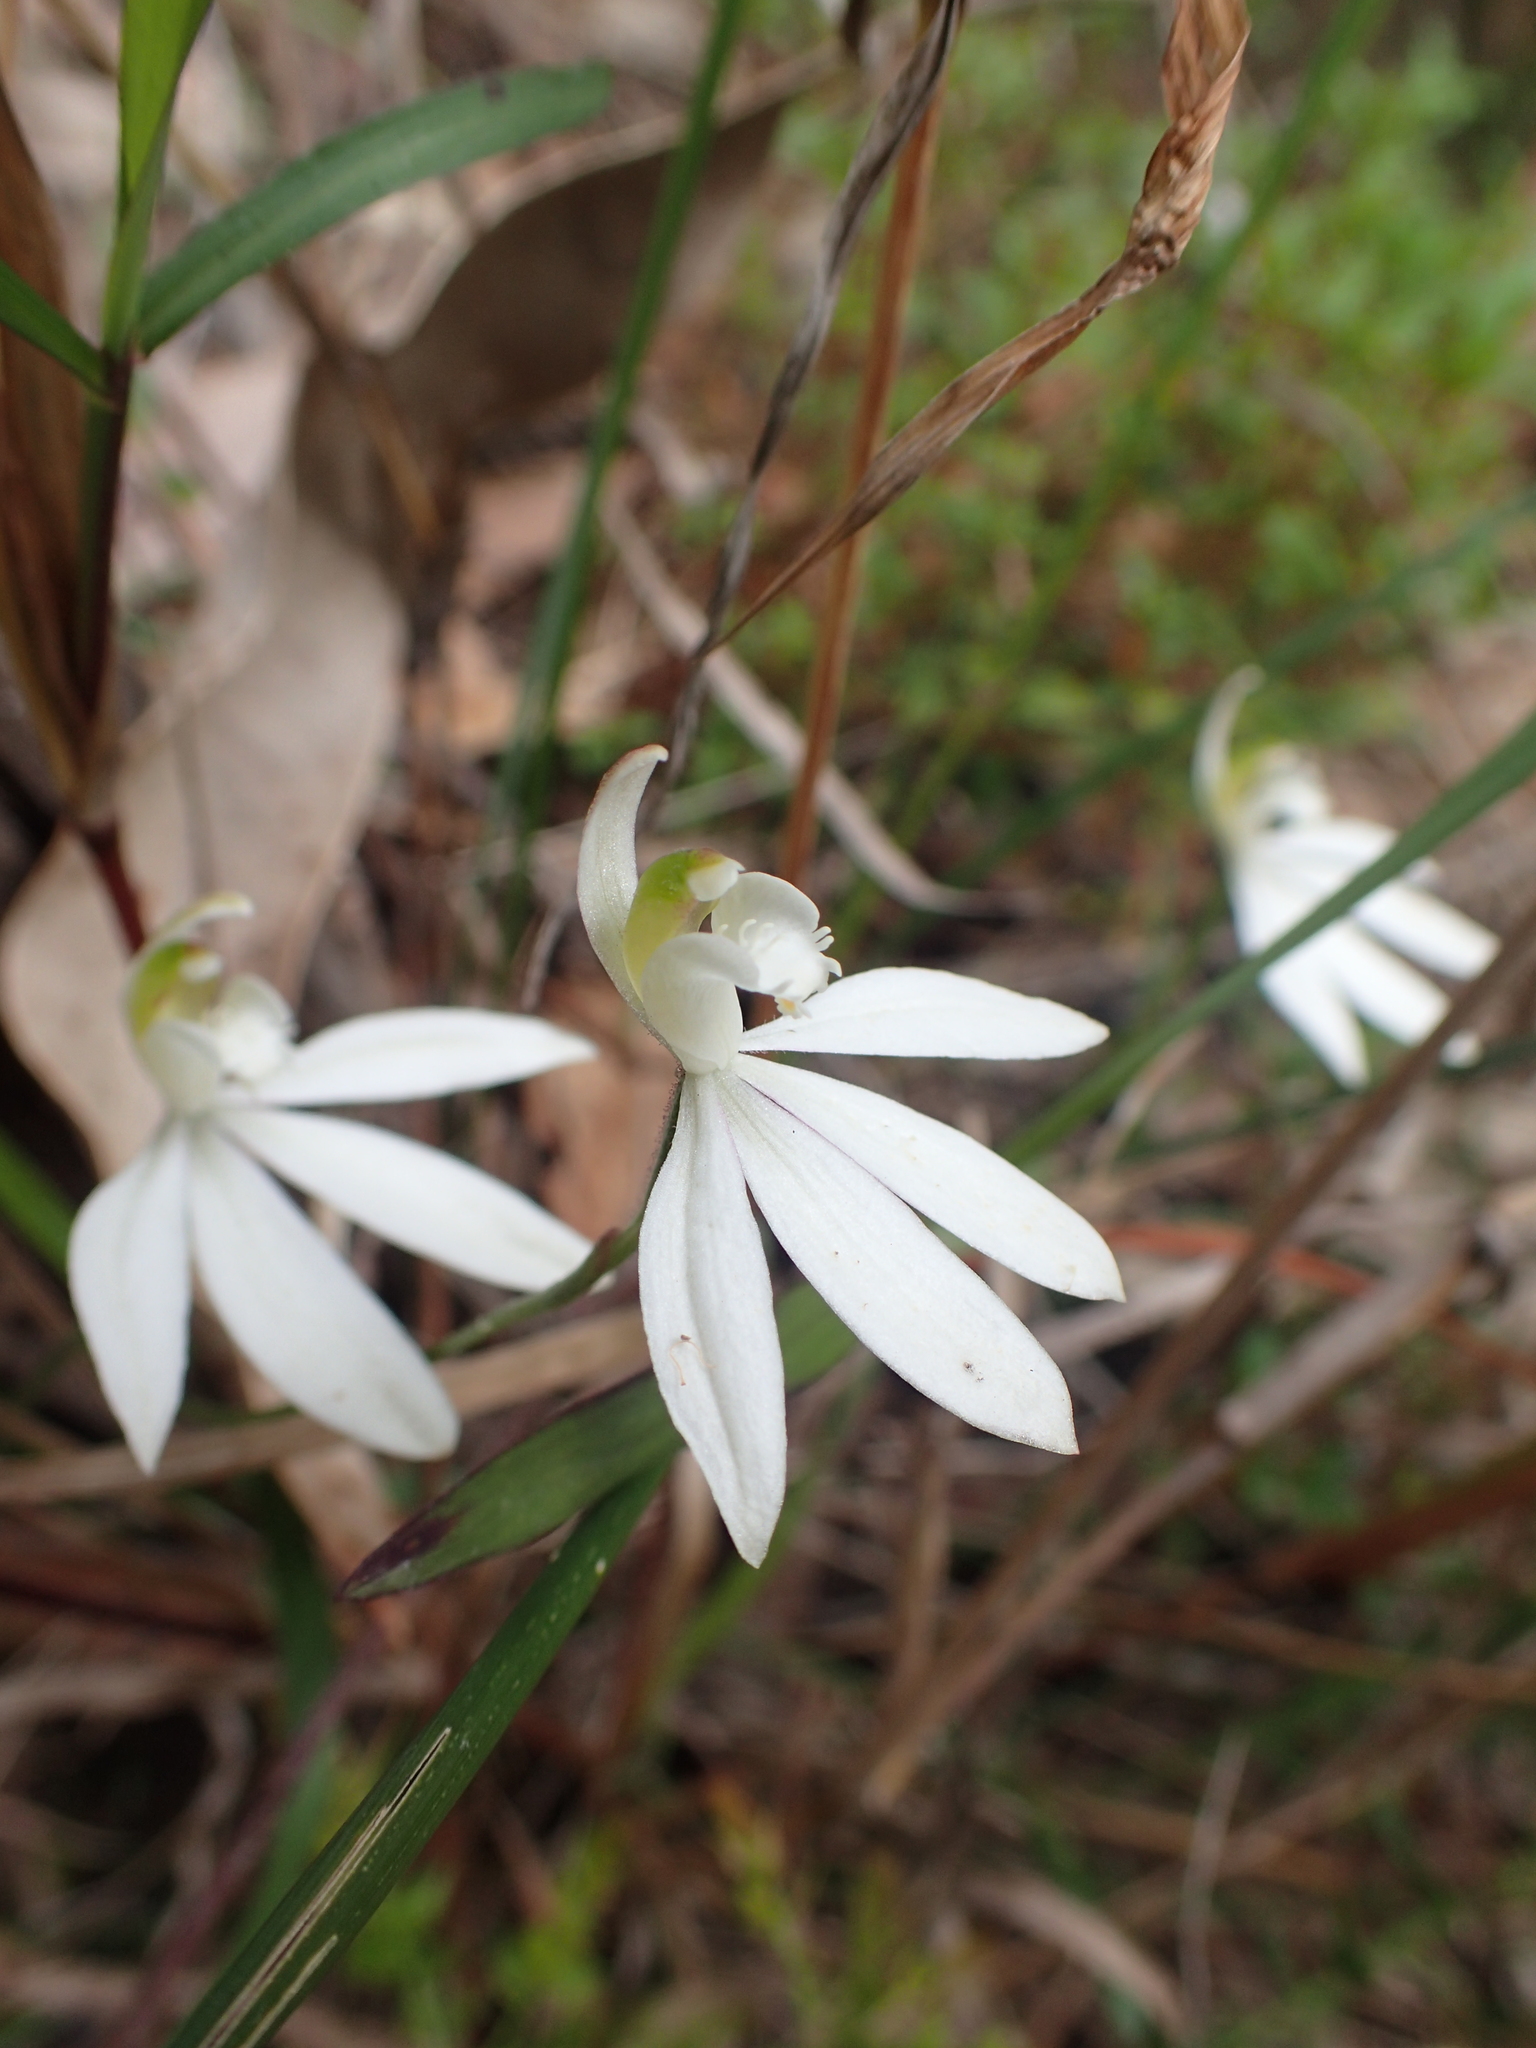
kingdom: Plantae
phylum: Tracheophyta
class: Liliopsida
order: Asparagales
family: Orchidaceae
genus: Caladenia
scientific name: Caladenia catenata
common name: White caladenia
